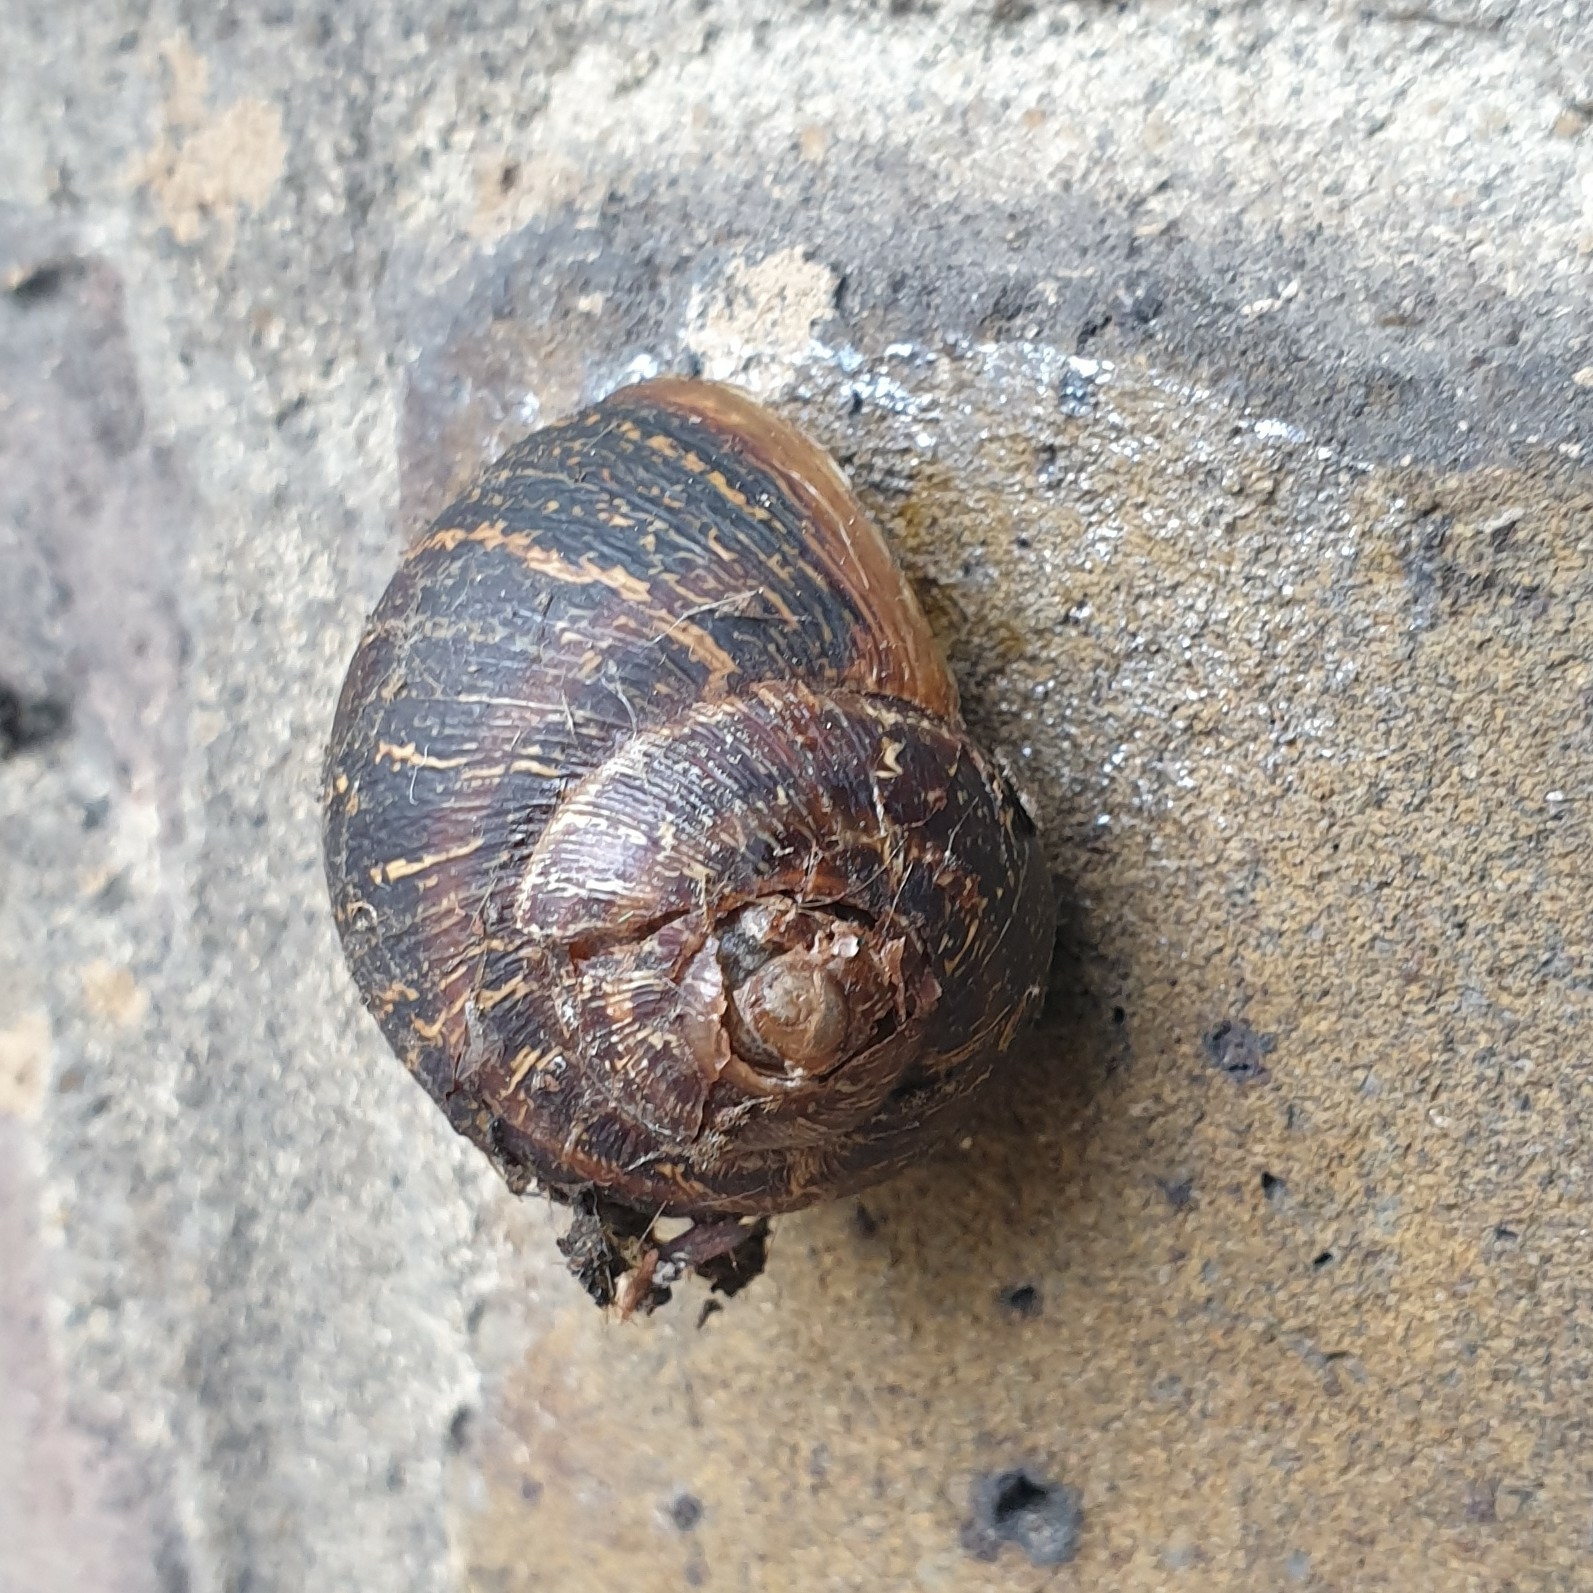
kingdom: Animalia
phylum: Mollusca
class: Gastropoda
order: Stylommatophora
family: Helicidae
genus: Cornu
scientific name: Cornu aspersum
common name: Brown garden snail
